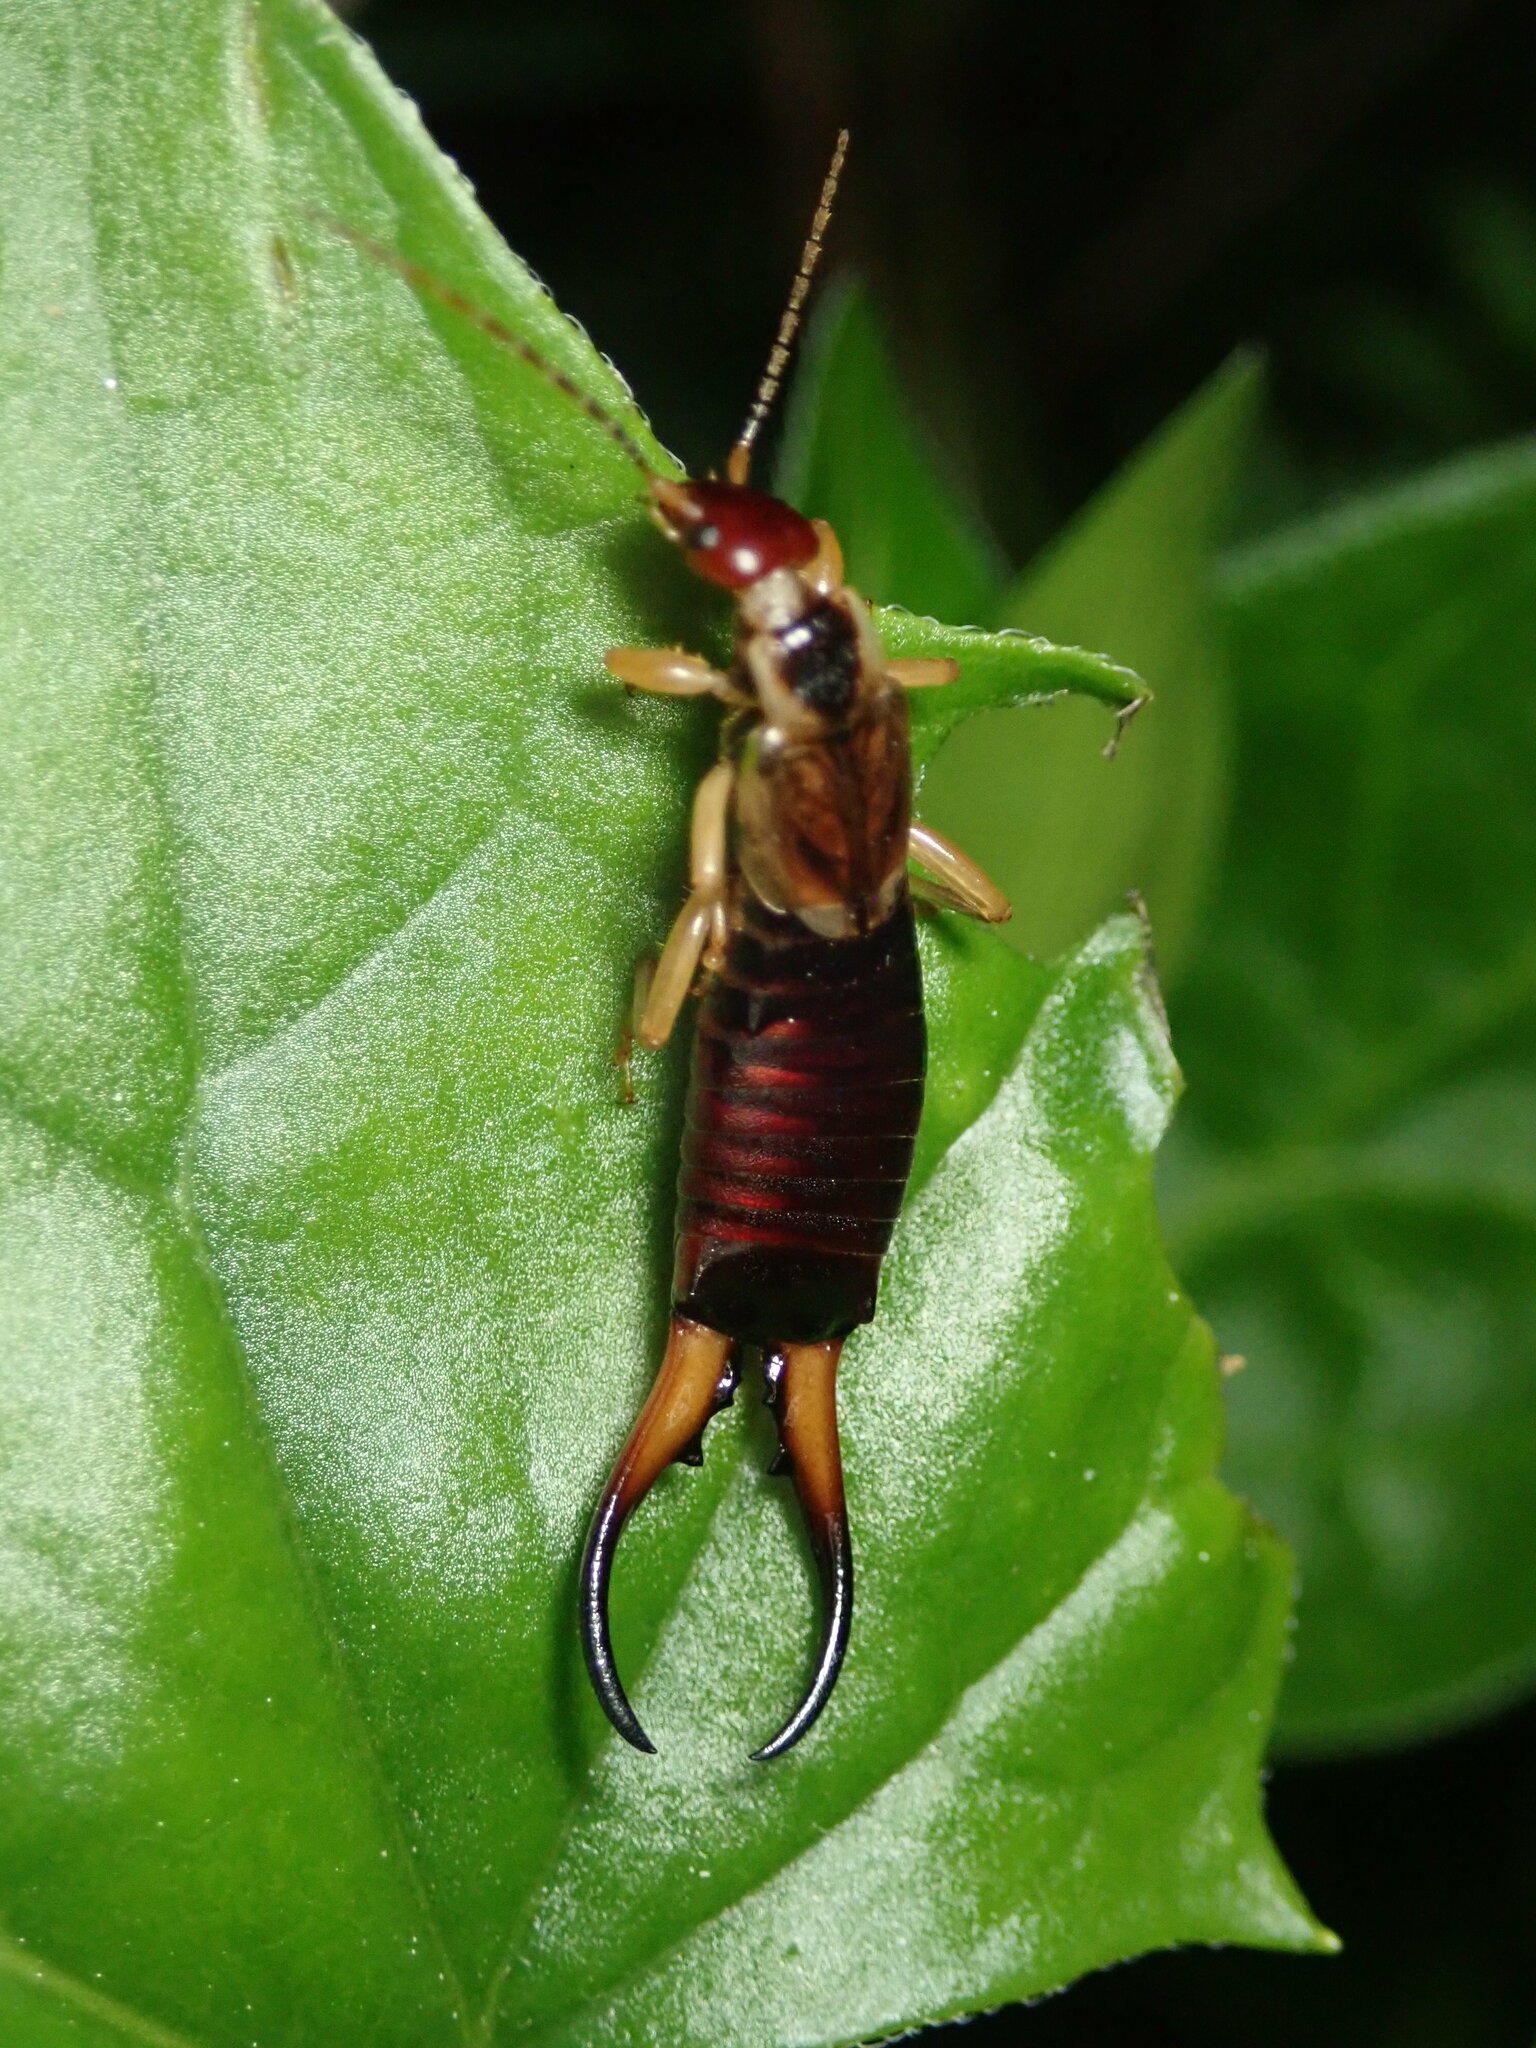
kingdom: Animalia
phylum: Arthropoda
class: Insecta
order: Dermaptera
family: Forficulidae
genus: Forficula
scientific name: Forficula dentata
